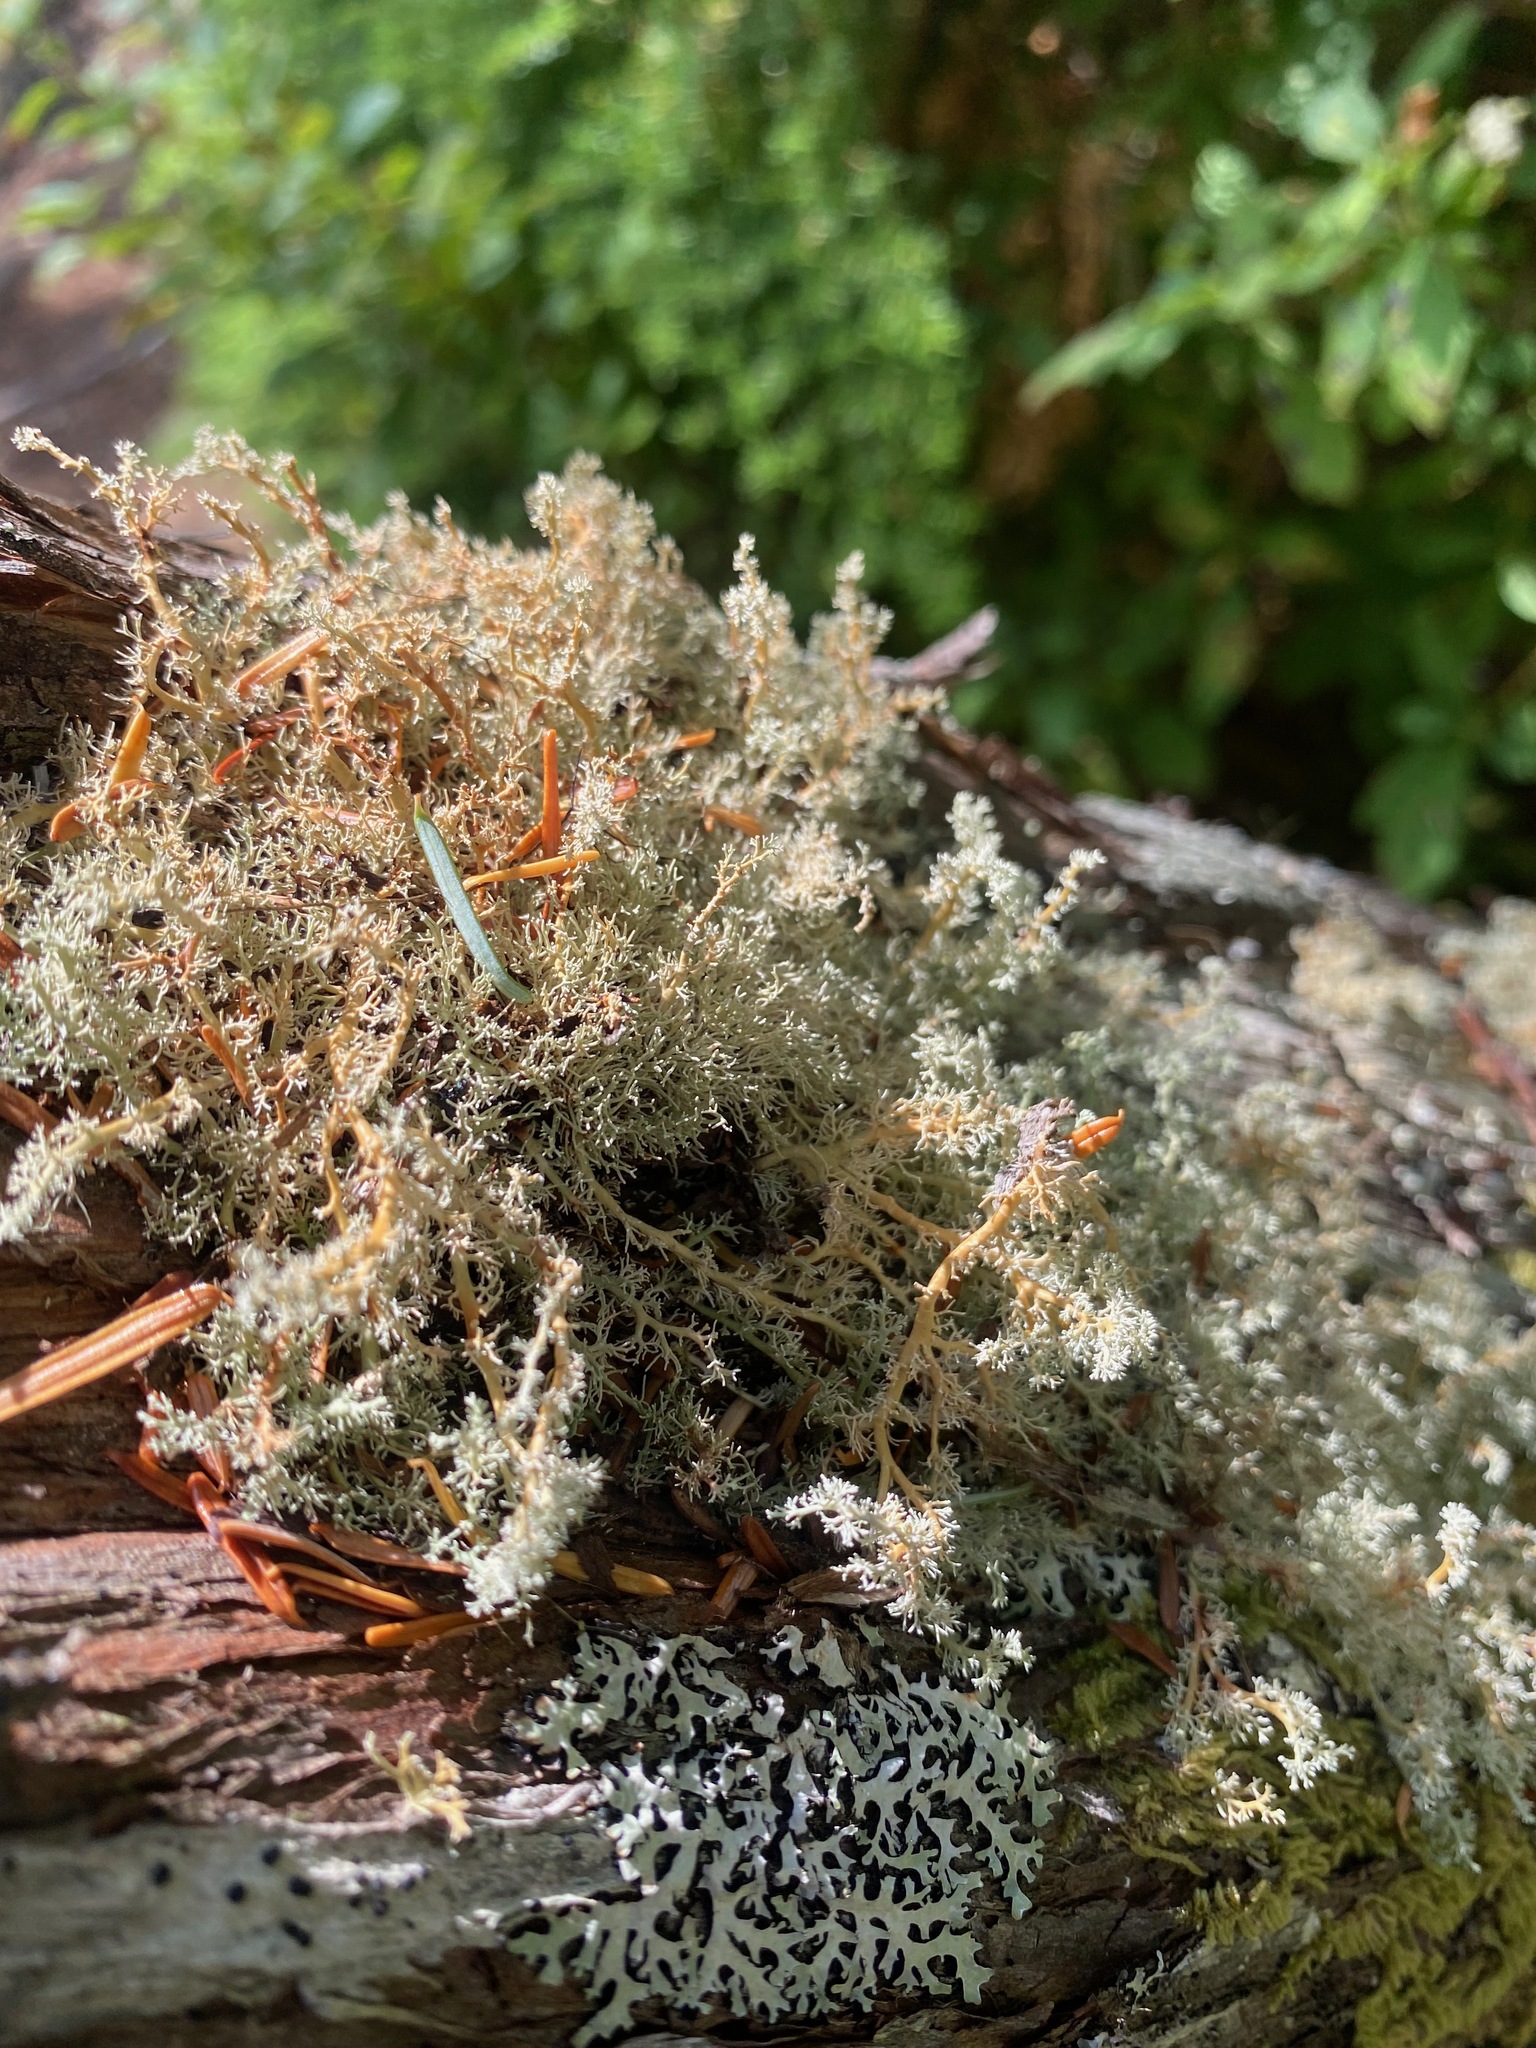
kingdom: Fungi
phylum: Ascomycota
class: Lecanoromycetes
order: Lecanorales
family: Sphaerophoraceae
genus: Sphaerophorus
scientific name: Sphaerophorus globosus
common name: Globe ball lichen
